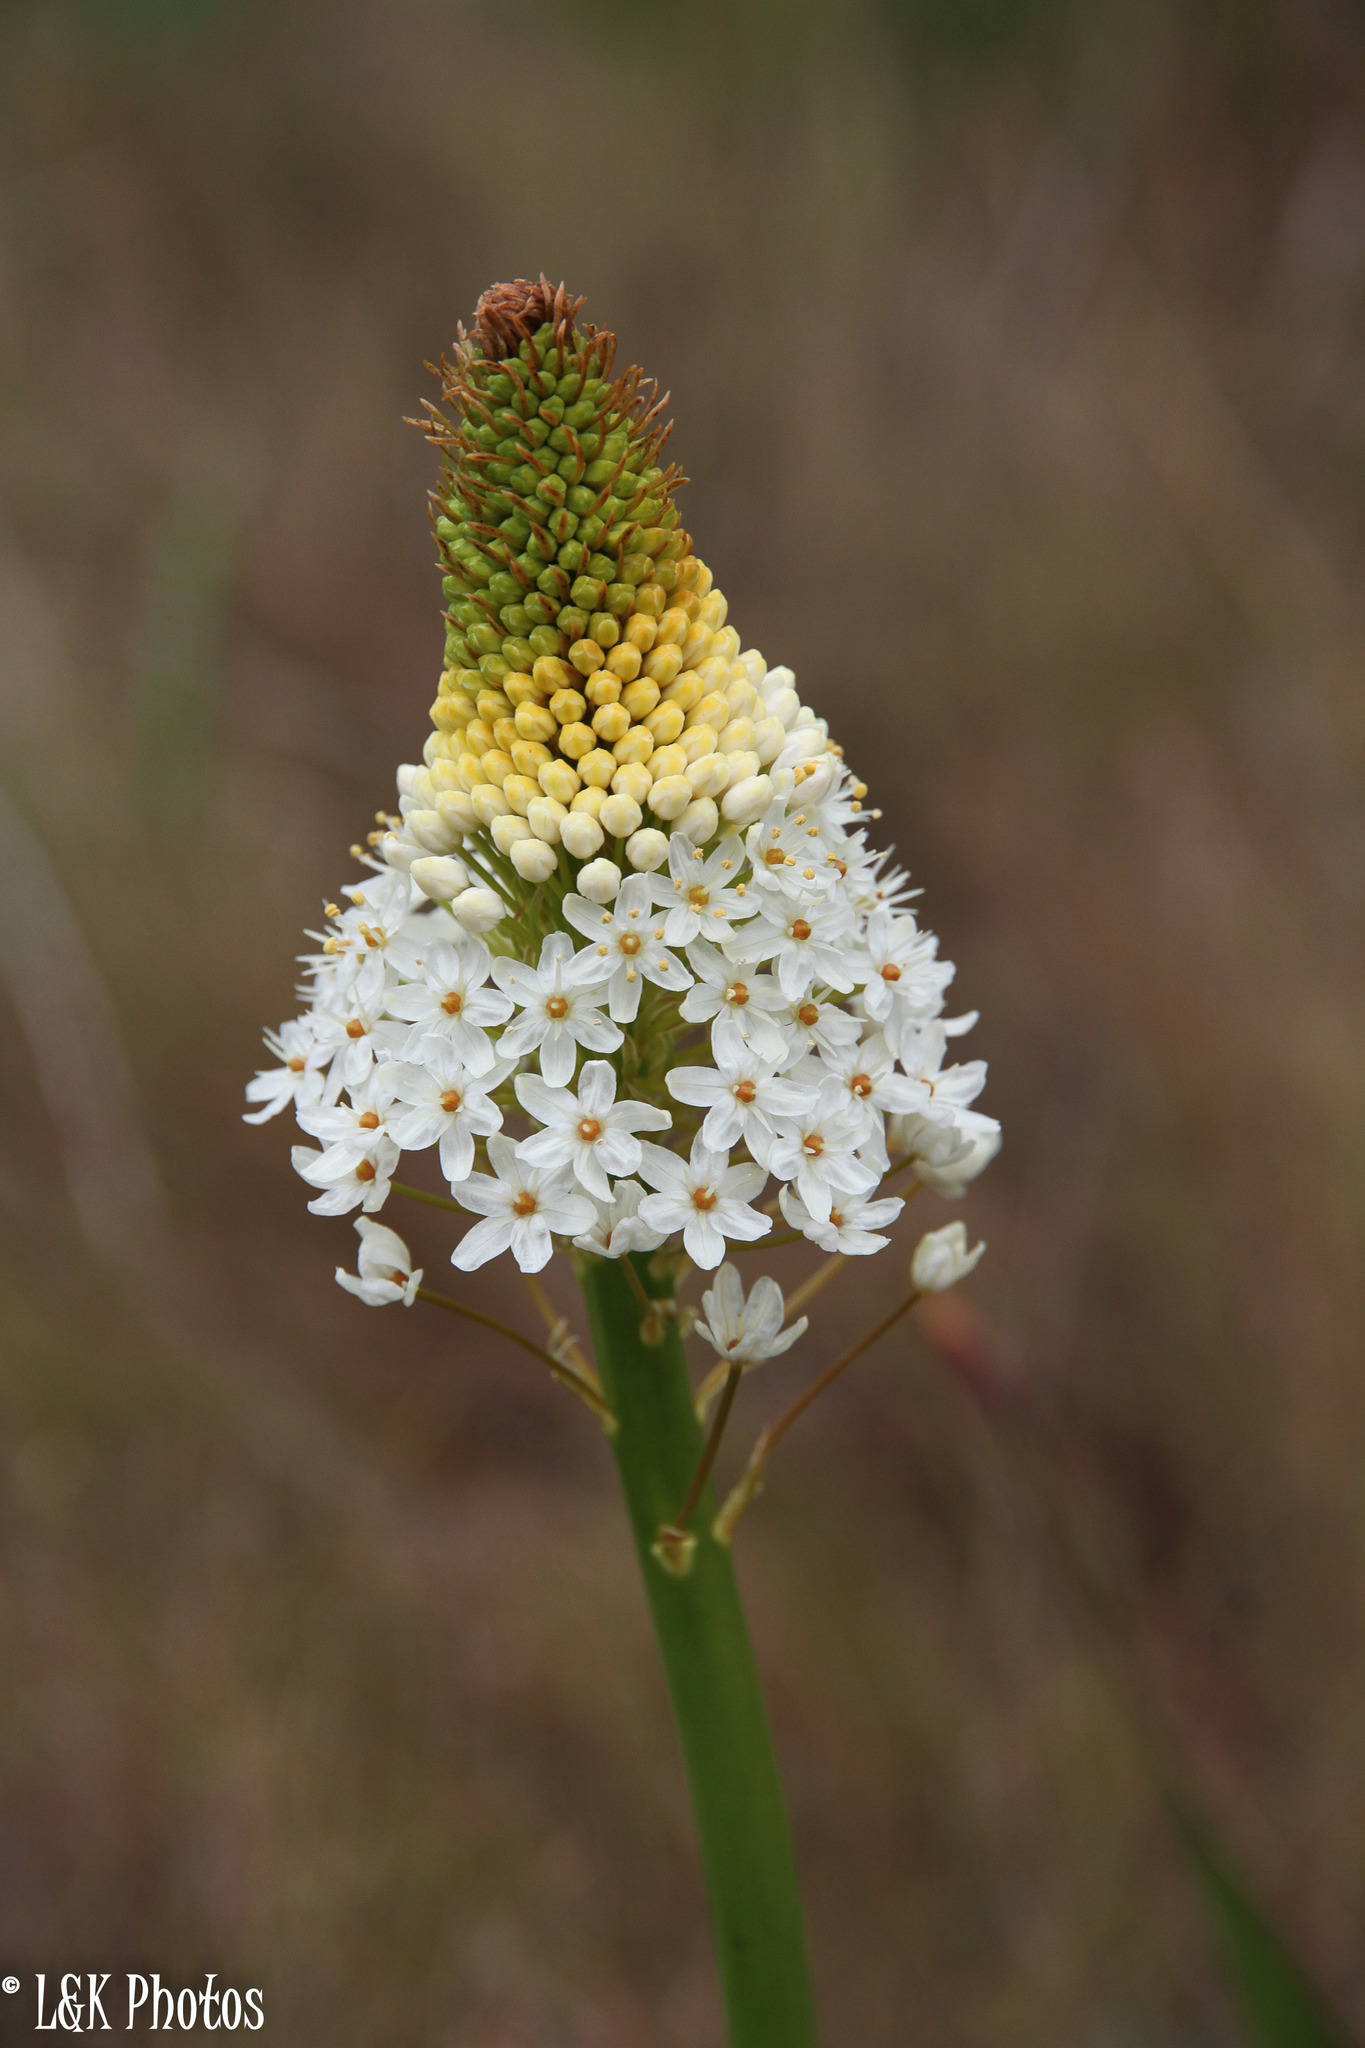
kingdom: Plantae
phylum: Tracheophyta
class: Liliopsida
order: Asparagales
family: Asphodelaceae
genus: Bulbinella
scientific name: Bulbinella nutans
